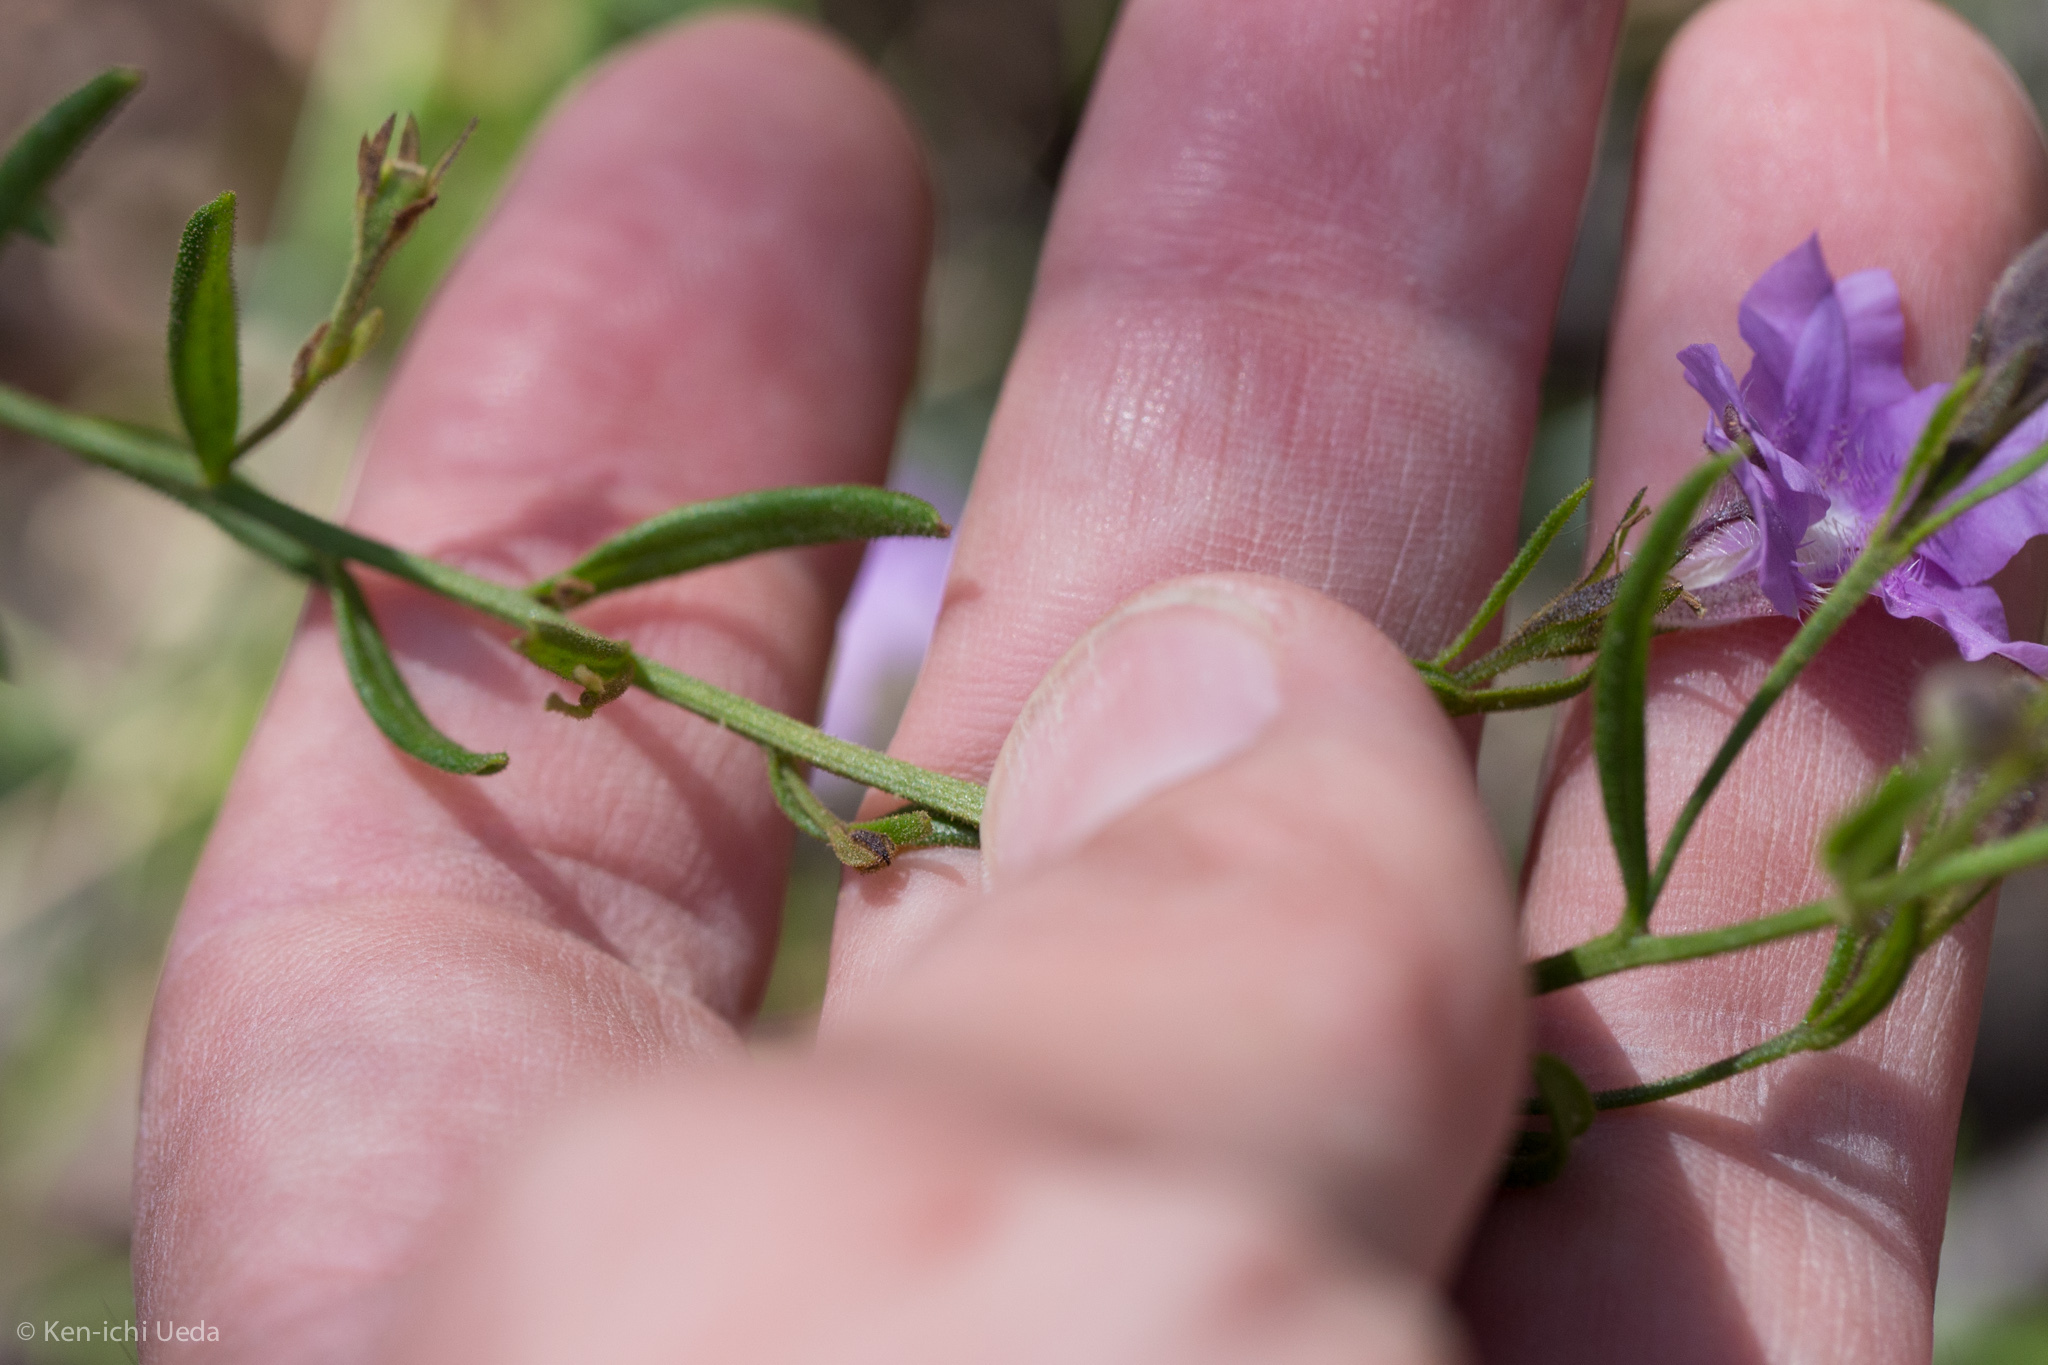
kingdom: Plantae
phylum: Tracheophyta
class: Magnoliopsida
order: Asterales
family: Goodeniaceae
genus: Goodenia
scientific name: Goodenia barbata
